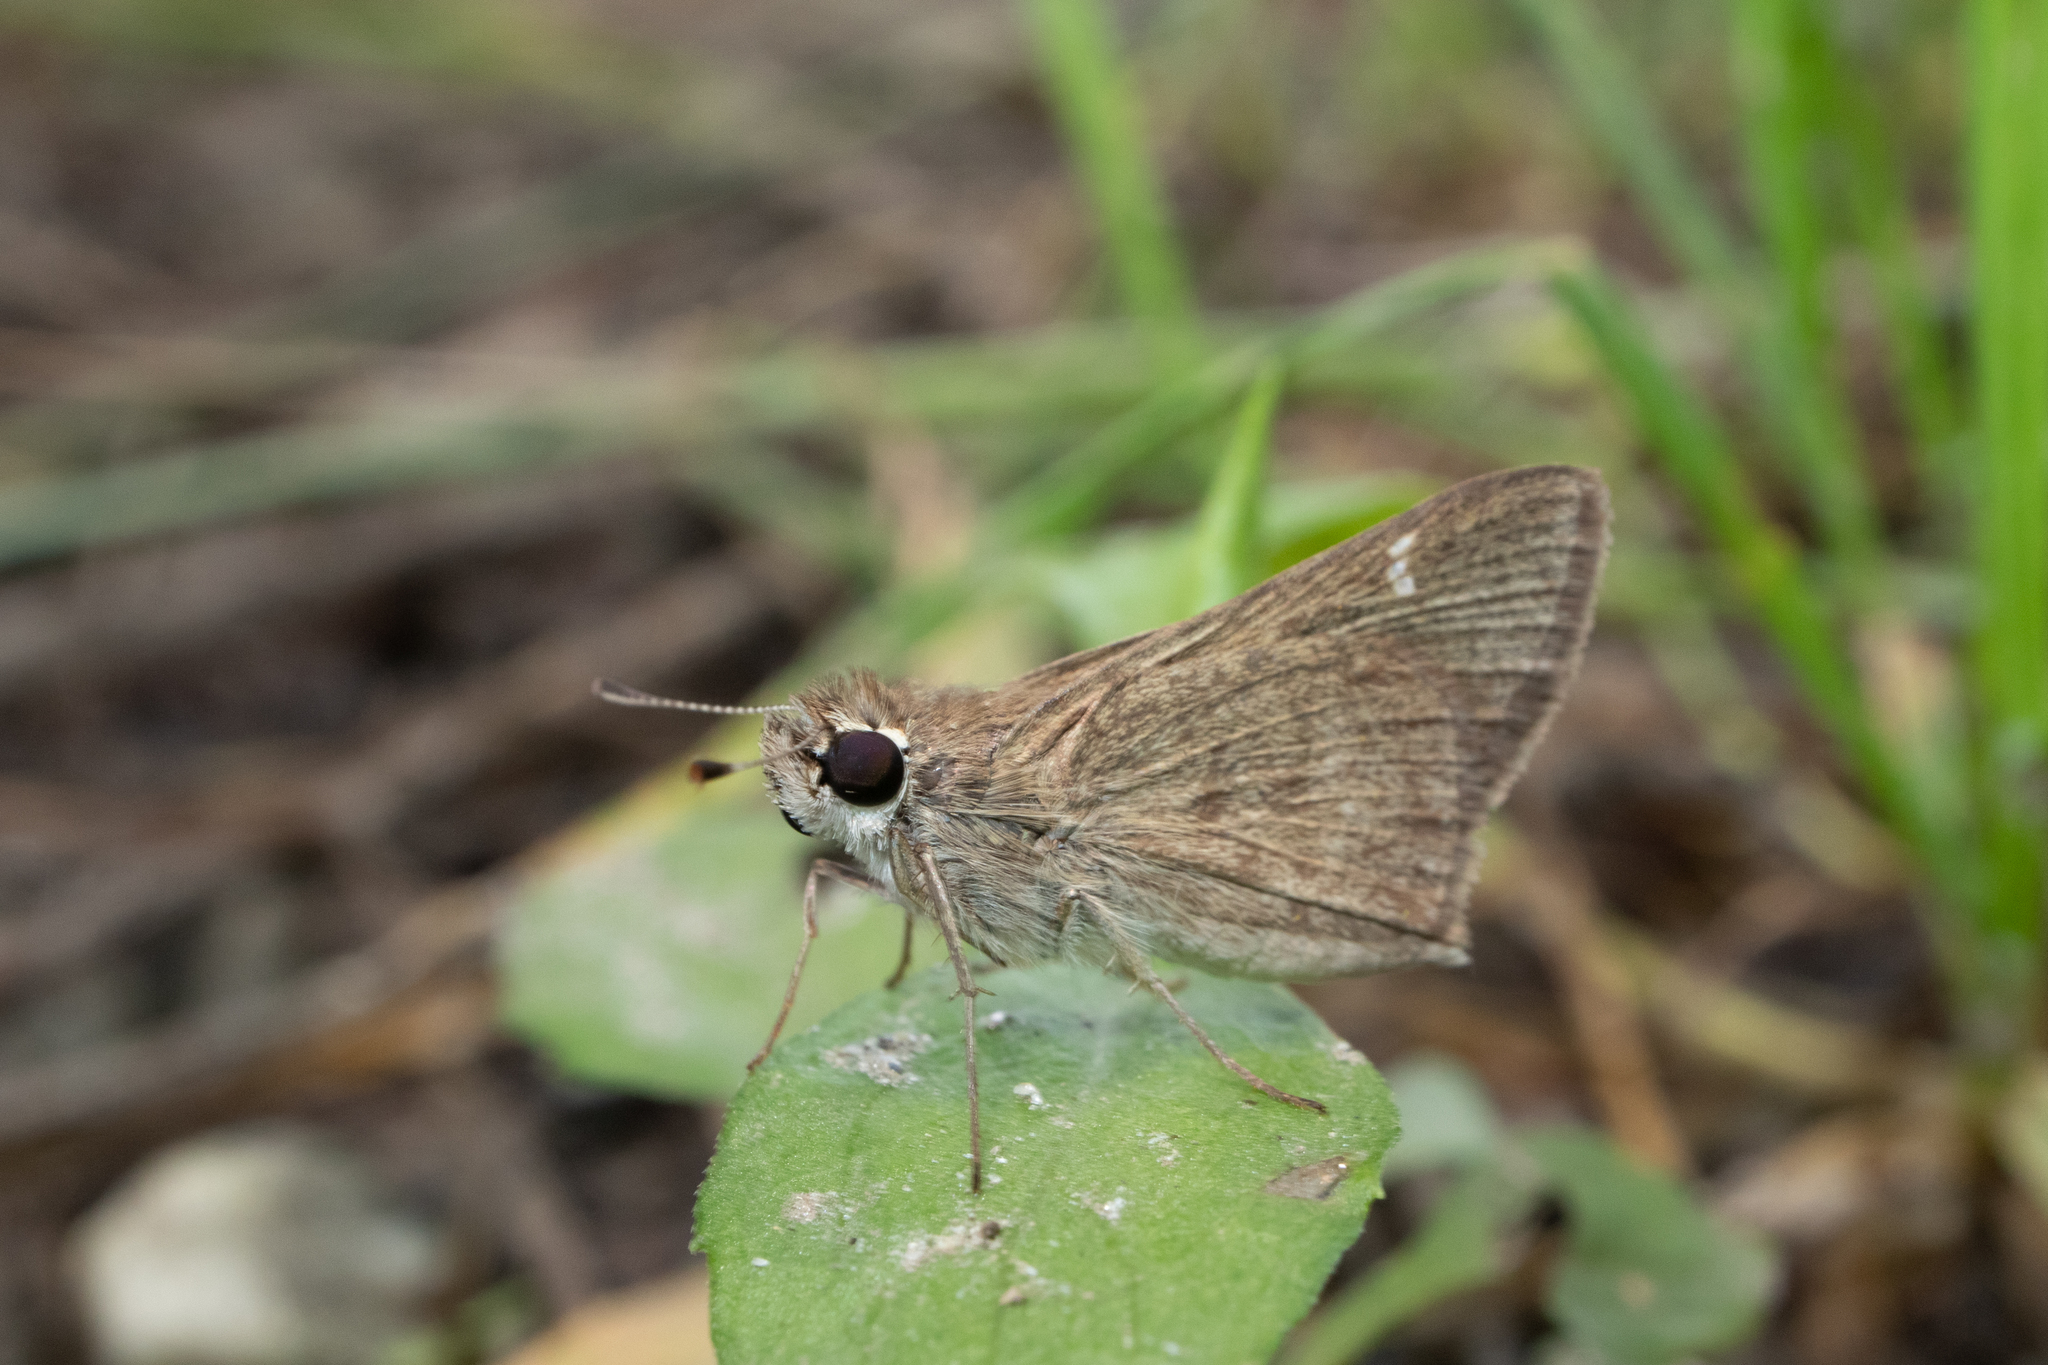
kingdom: Animalia
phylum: Arthropoda
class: Insecta
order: Lepidoptera
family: Hesperiidae
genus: Lerodea
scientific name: Lerodea eufala
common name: Eufala skipper
